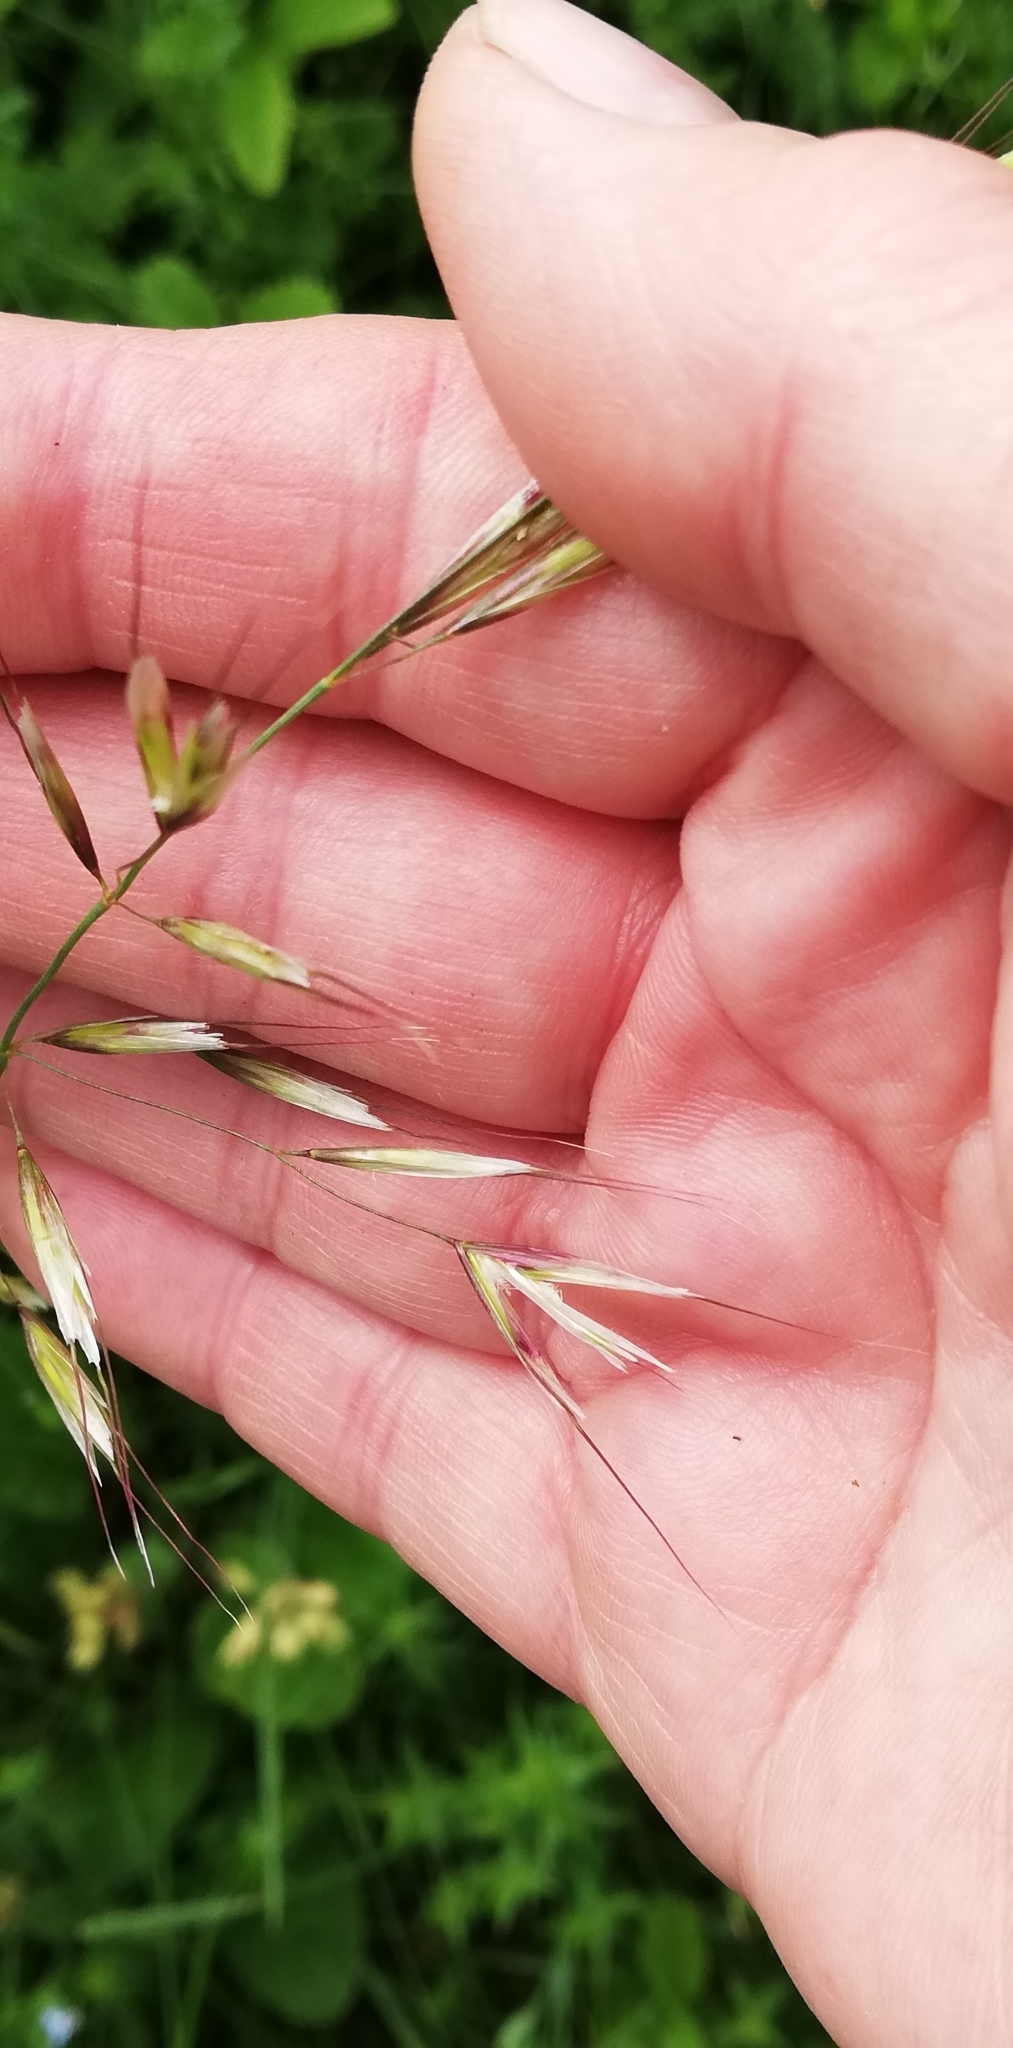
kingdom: Plantae
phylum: Tracheophyta
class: Liliopsida
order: Poales
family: Poaceae
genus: Arrhenatherum
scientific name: Arrhenatherum elatius
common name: Tall oatgrass
